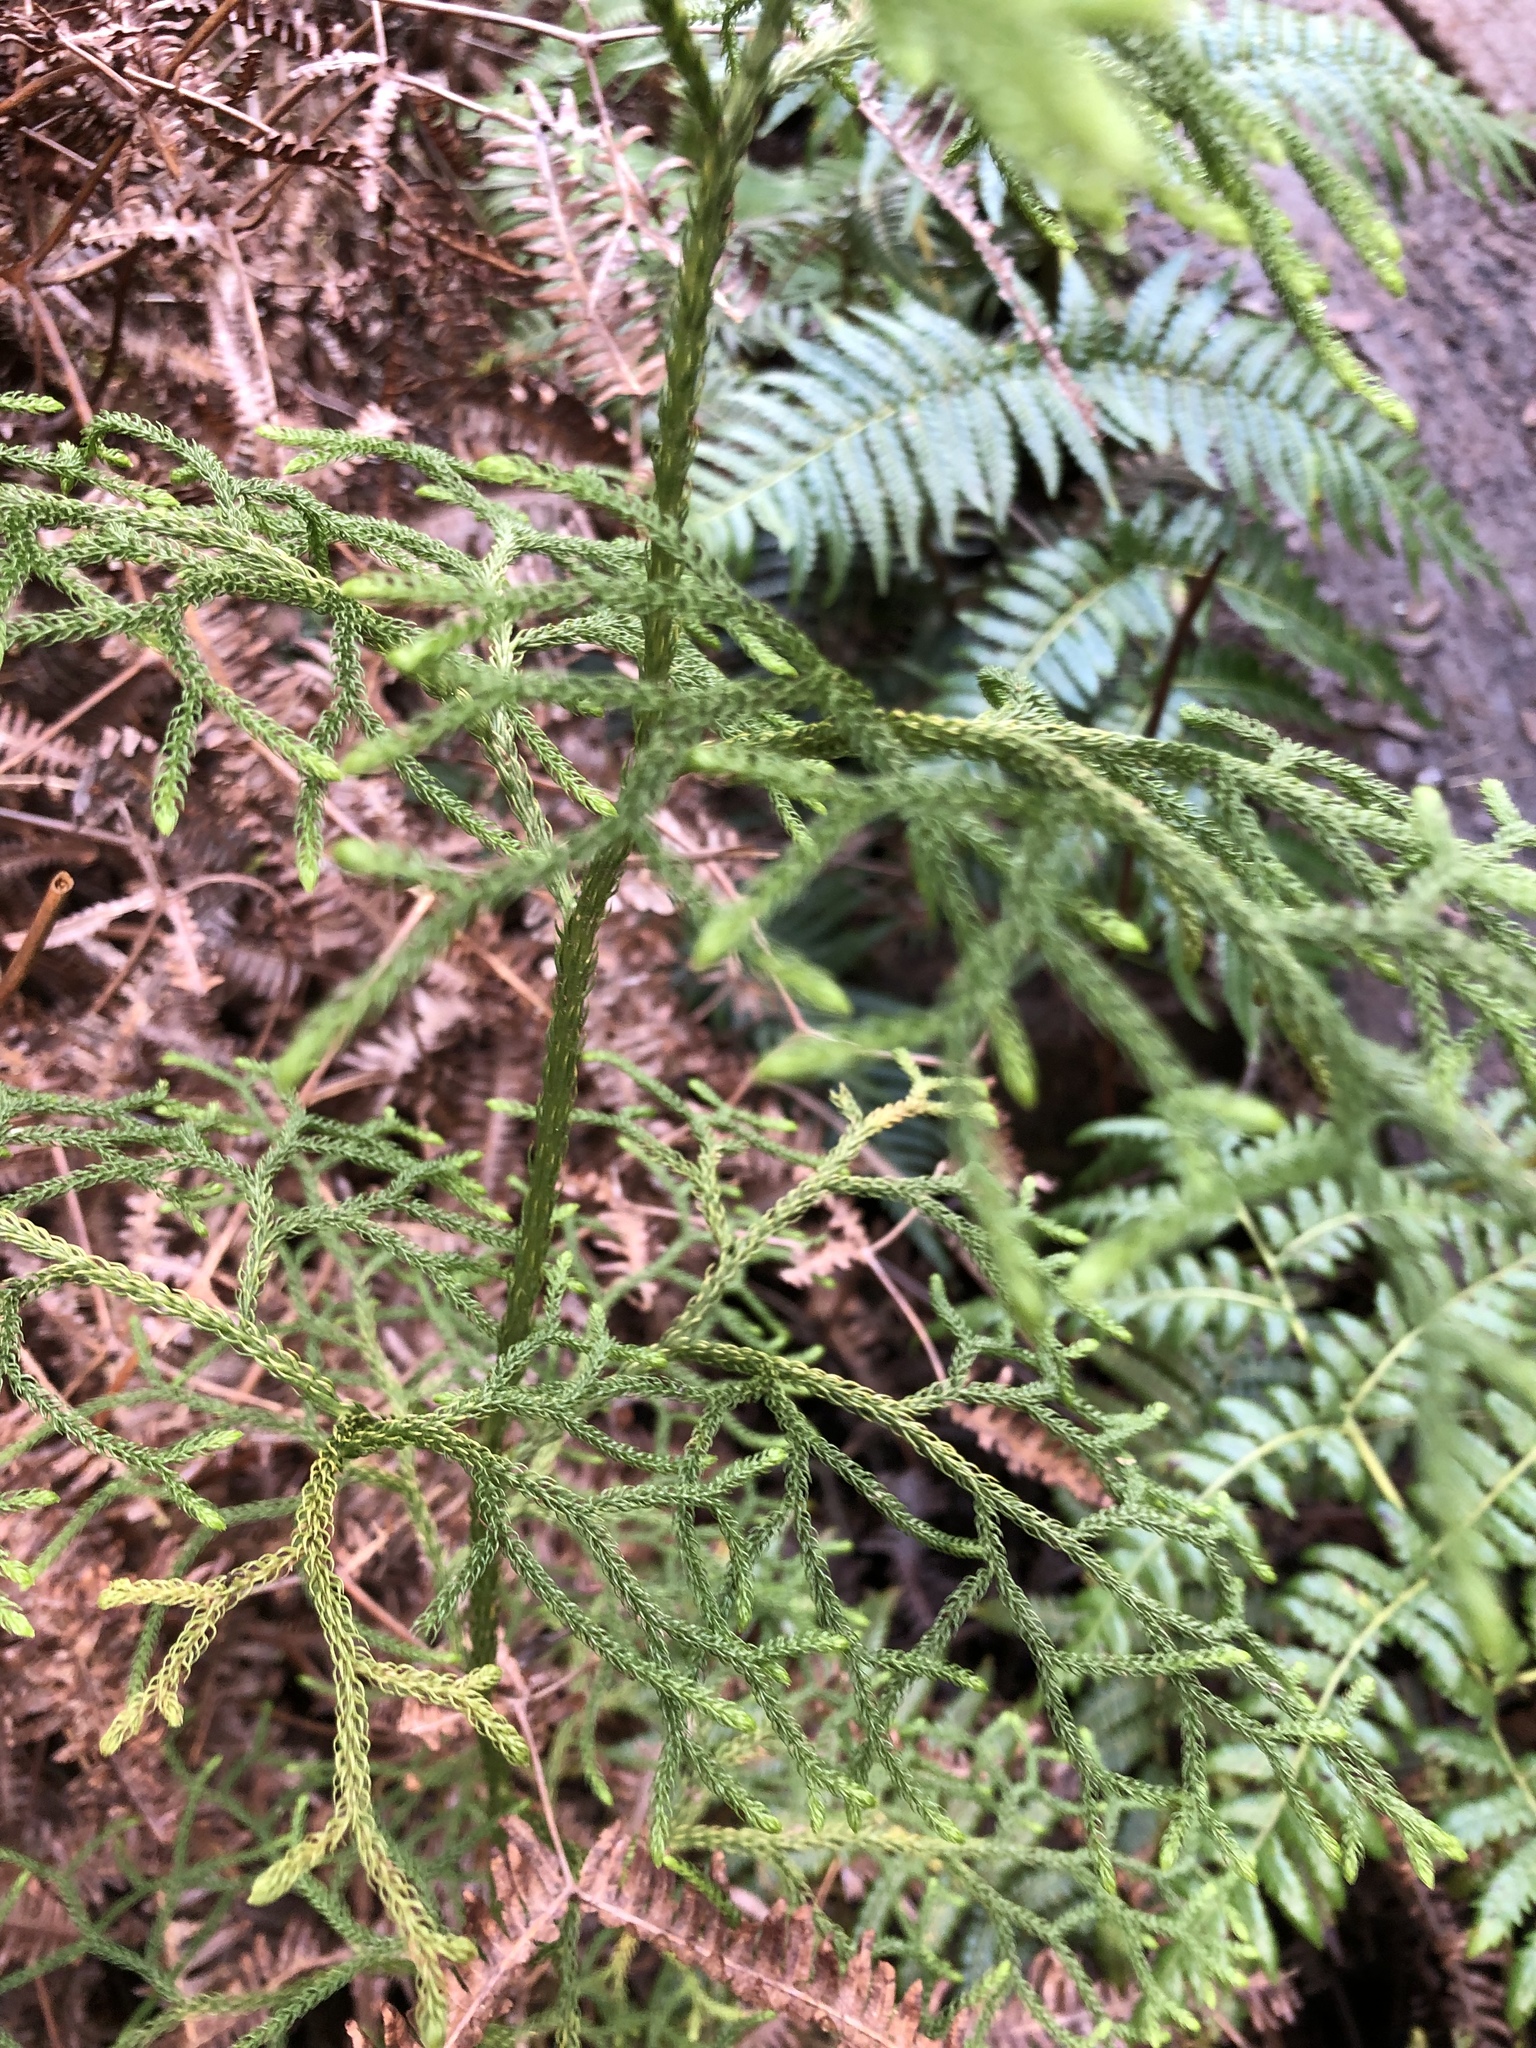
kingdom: Plantae
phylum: Tracheophyta
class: Lycopodiopsida
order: Lycopodiales
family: Lycopodiaceae
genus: Palhinhaea
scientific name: Palhinhaea cernua
